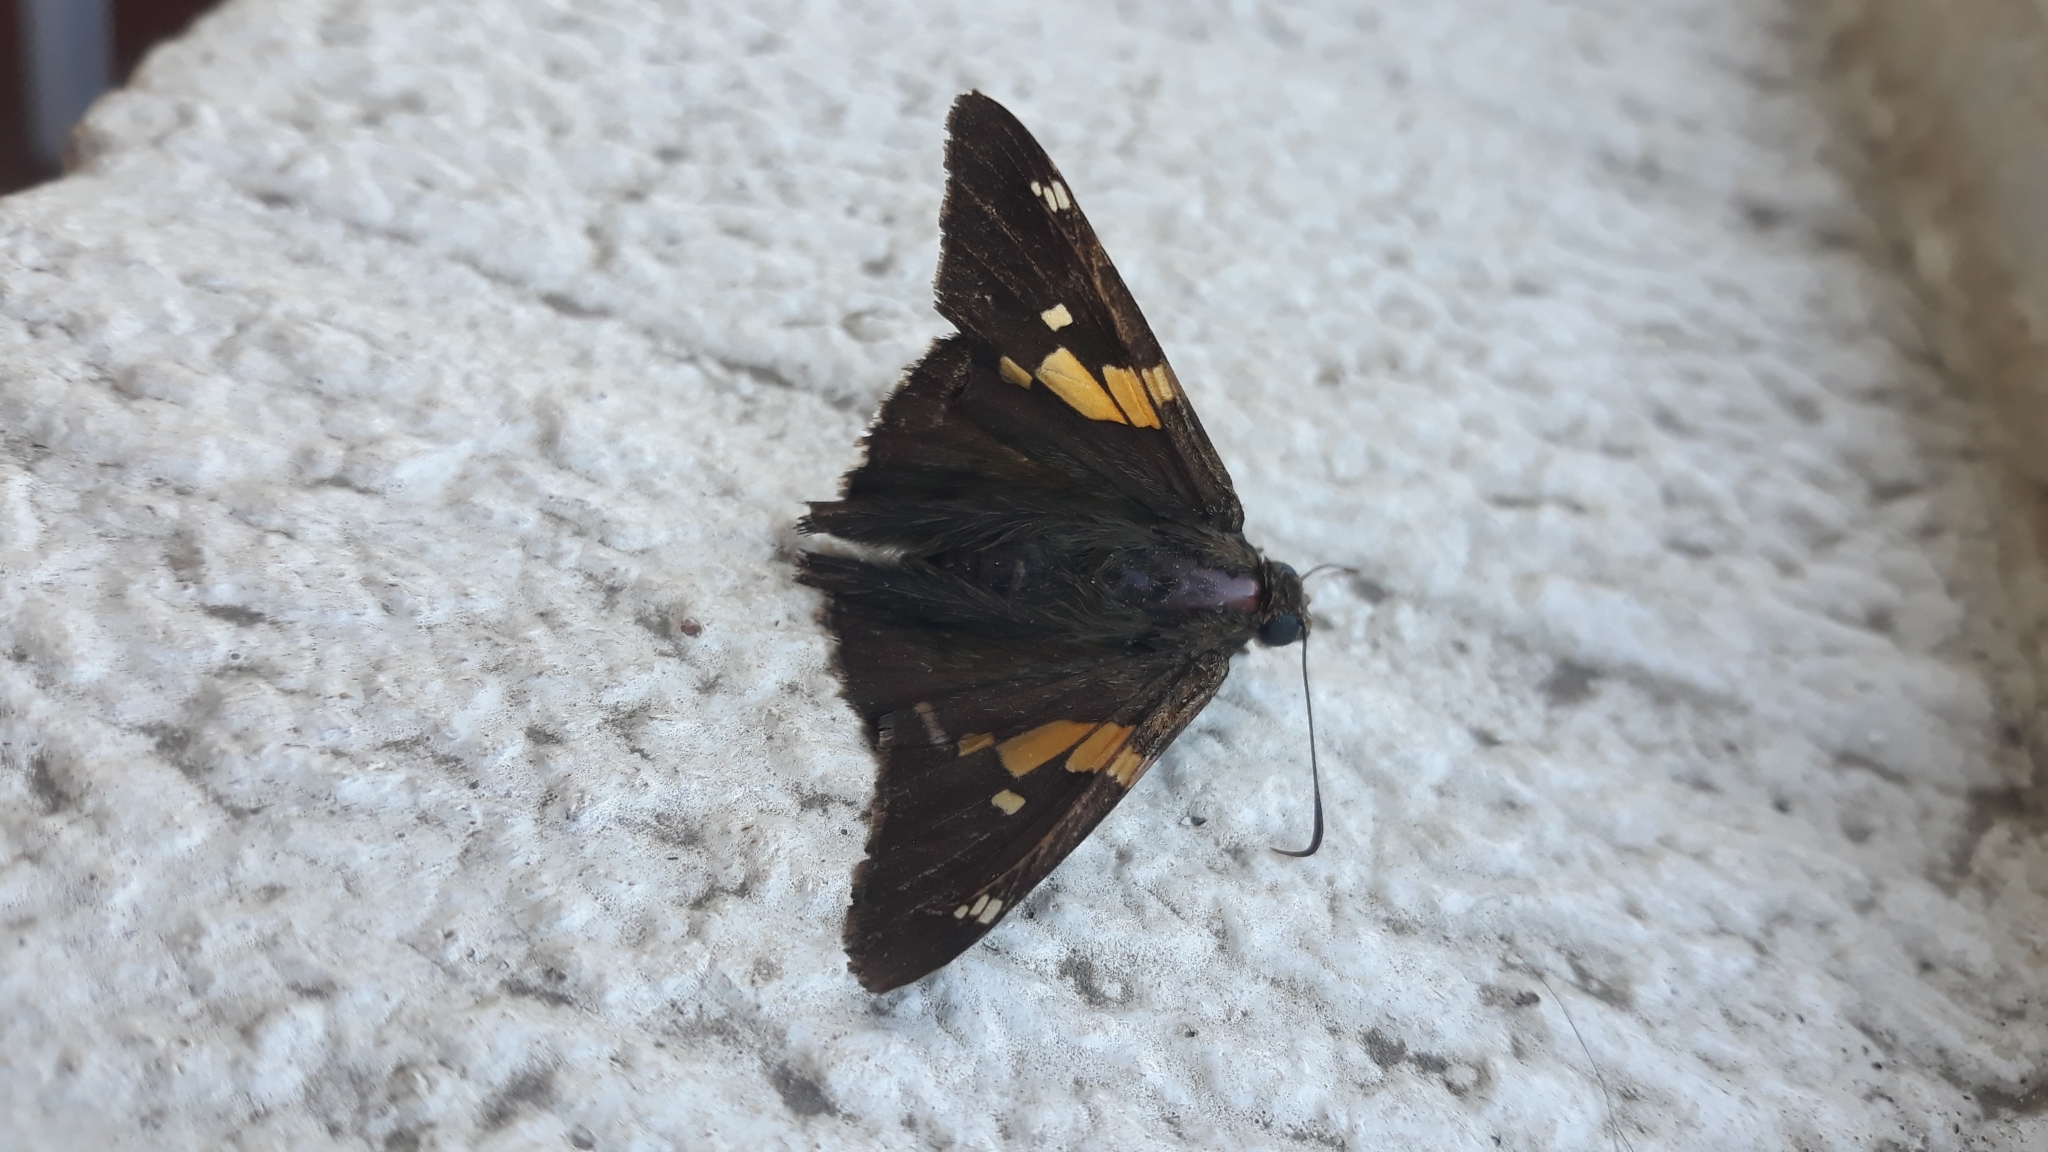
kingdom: Animalia
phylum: Arthropoda
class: Insecta
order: Lepidoptera
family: Hesperiidae
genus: Epargyreus
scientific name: Epargyreus clarus
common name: Silver-spotted skipper
